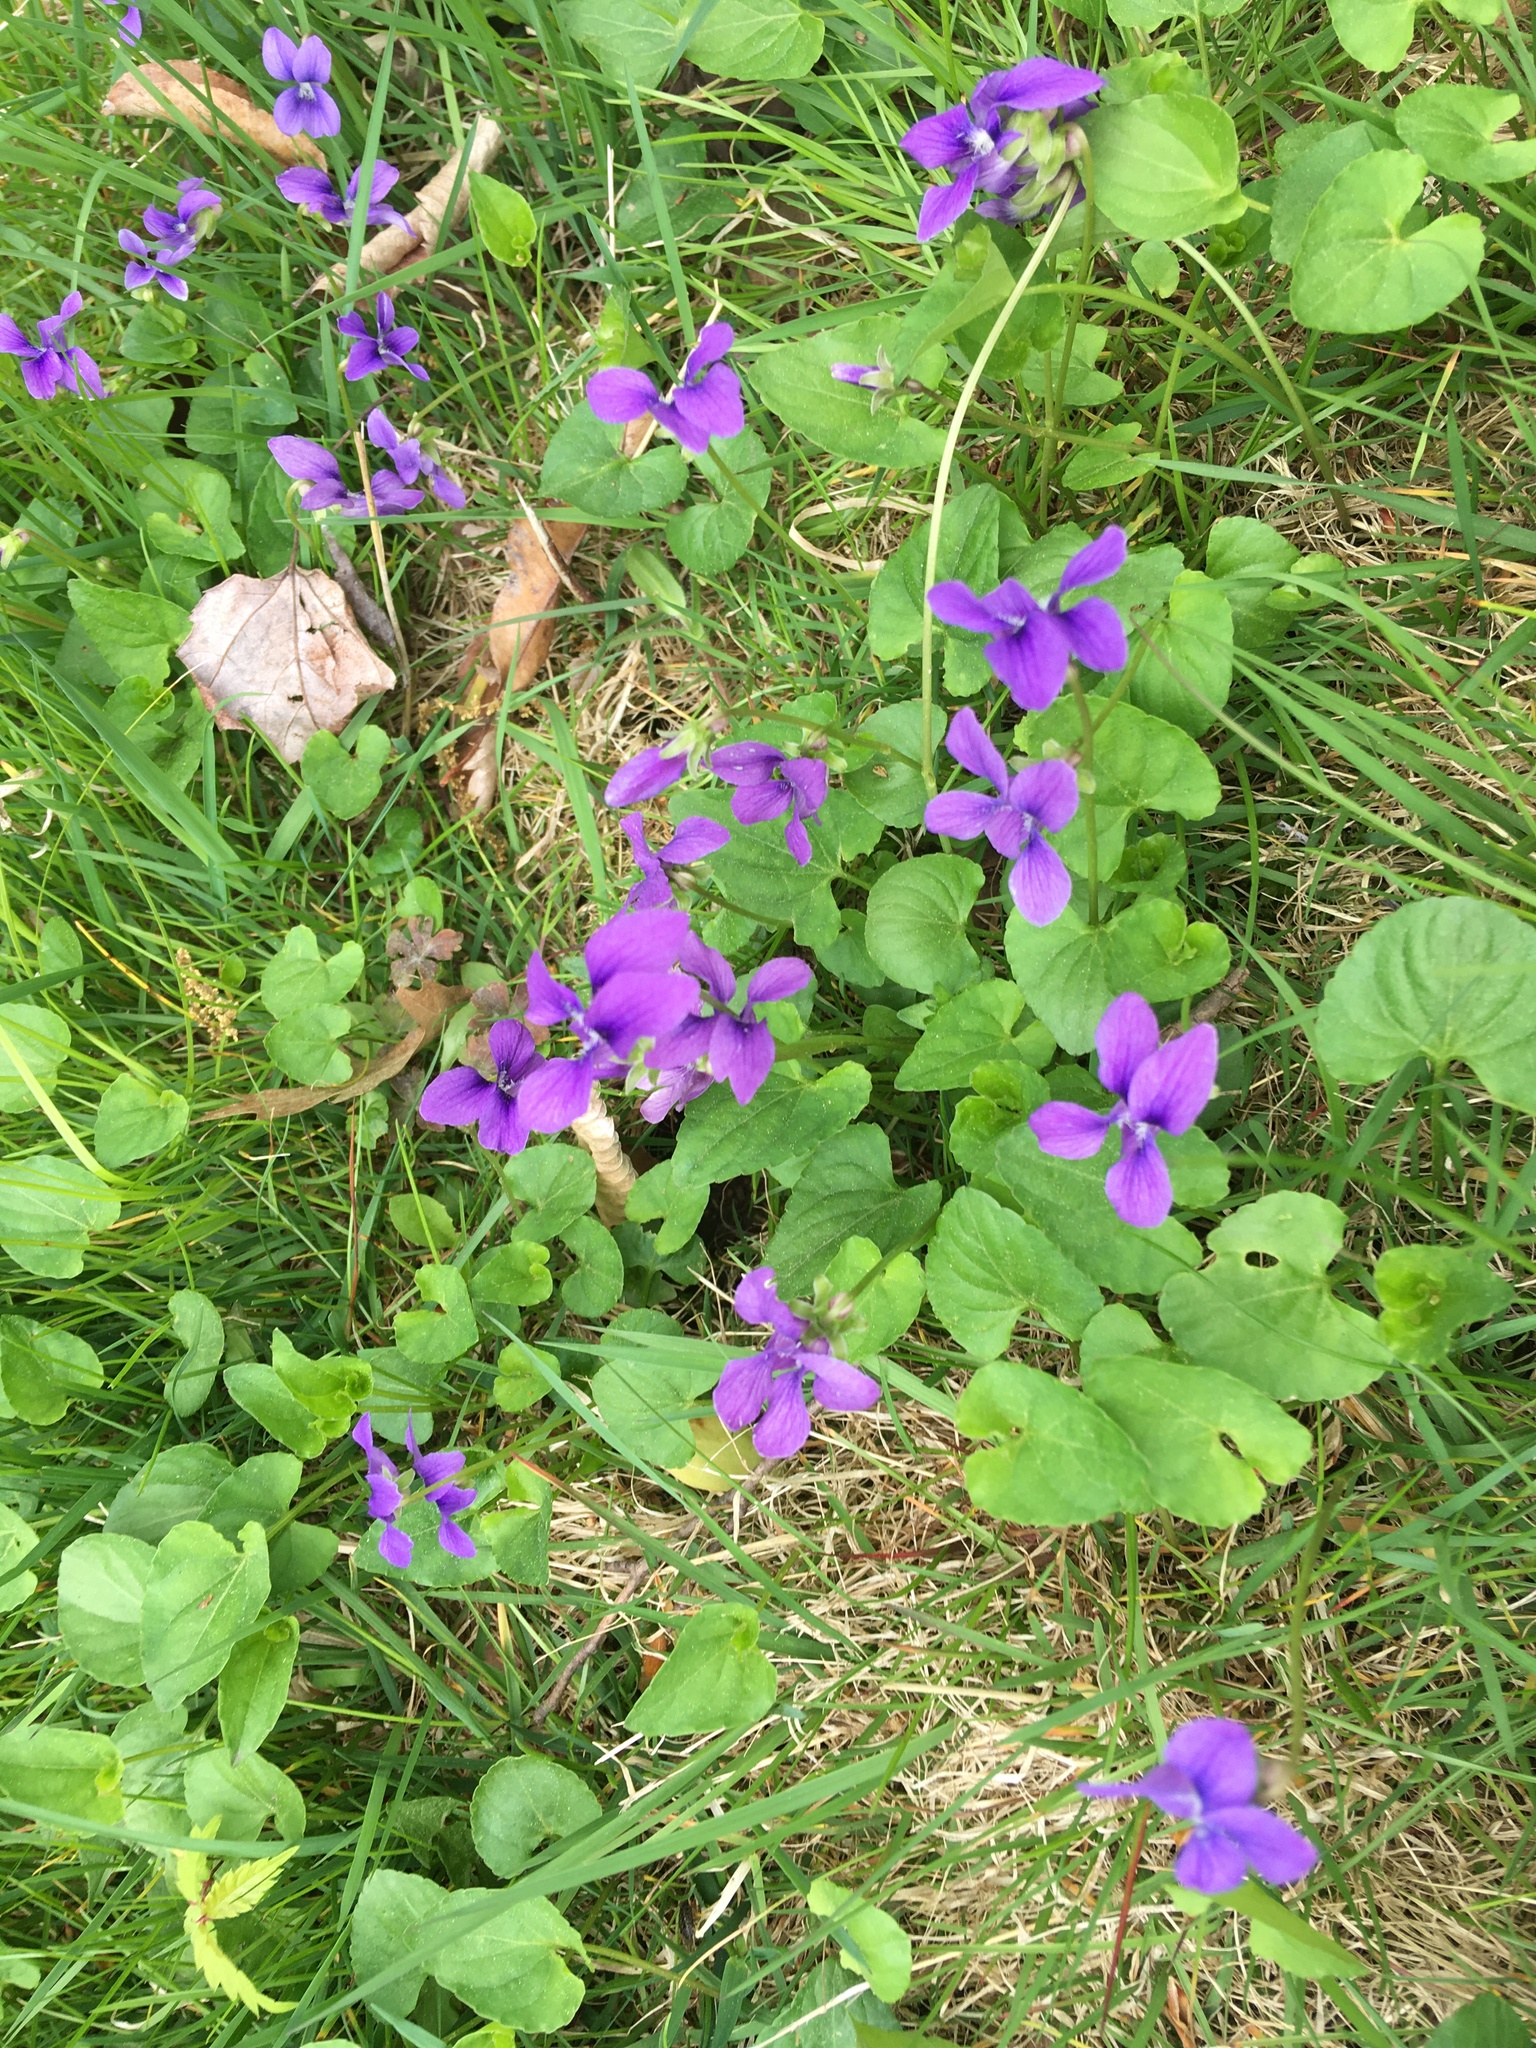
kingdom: Plantae
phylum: Tracheophyta
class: Magnoliopsida
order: Malpighiales
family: Violaceae
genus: Viola
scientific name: Viola sororia
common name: Dooryard violet
